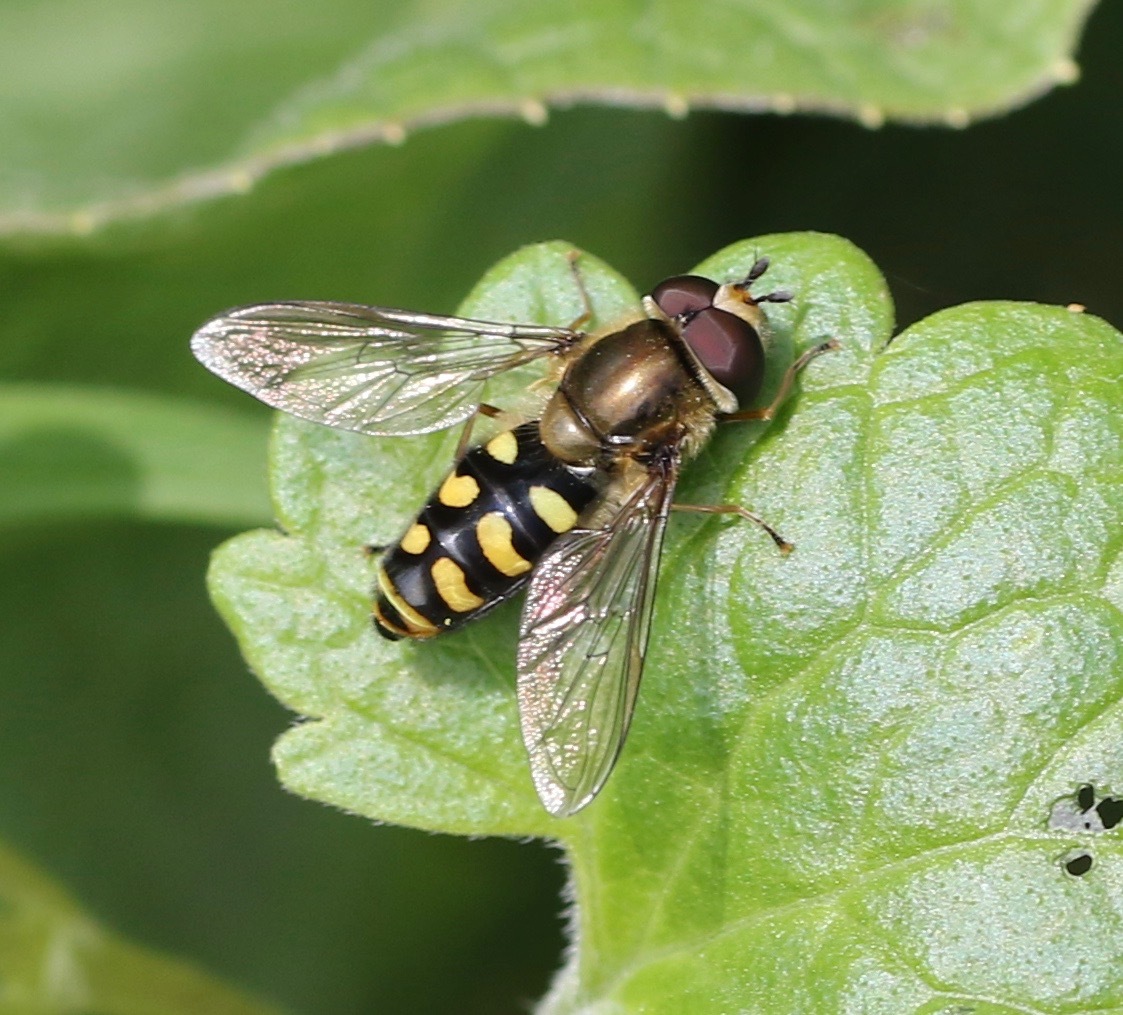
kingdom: Animalia
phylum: Arthropoda
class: Insecta
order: Diptera
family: Syrphidae
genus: Eupeodes
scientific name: Eupeodes luniger
